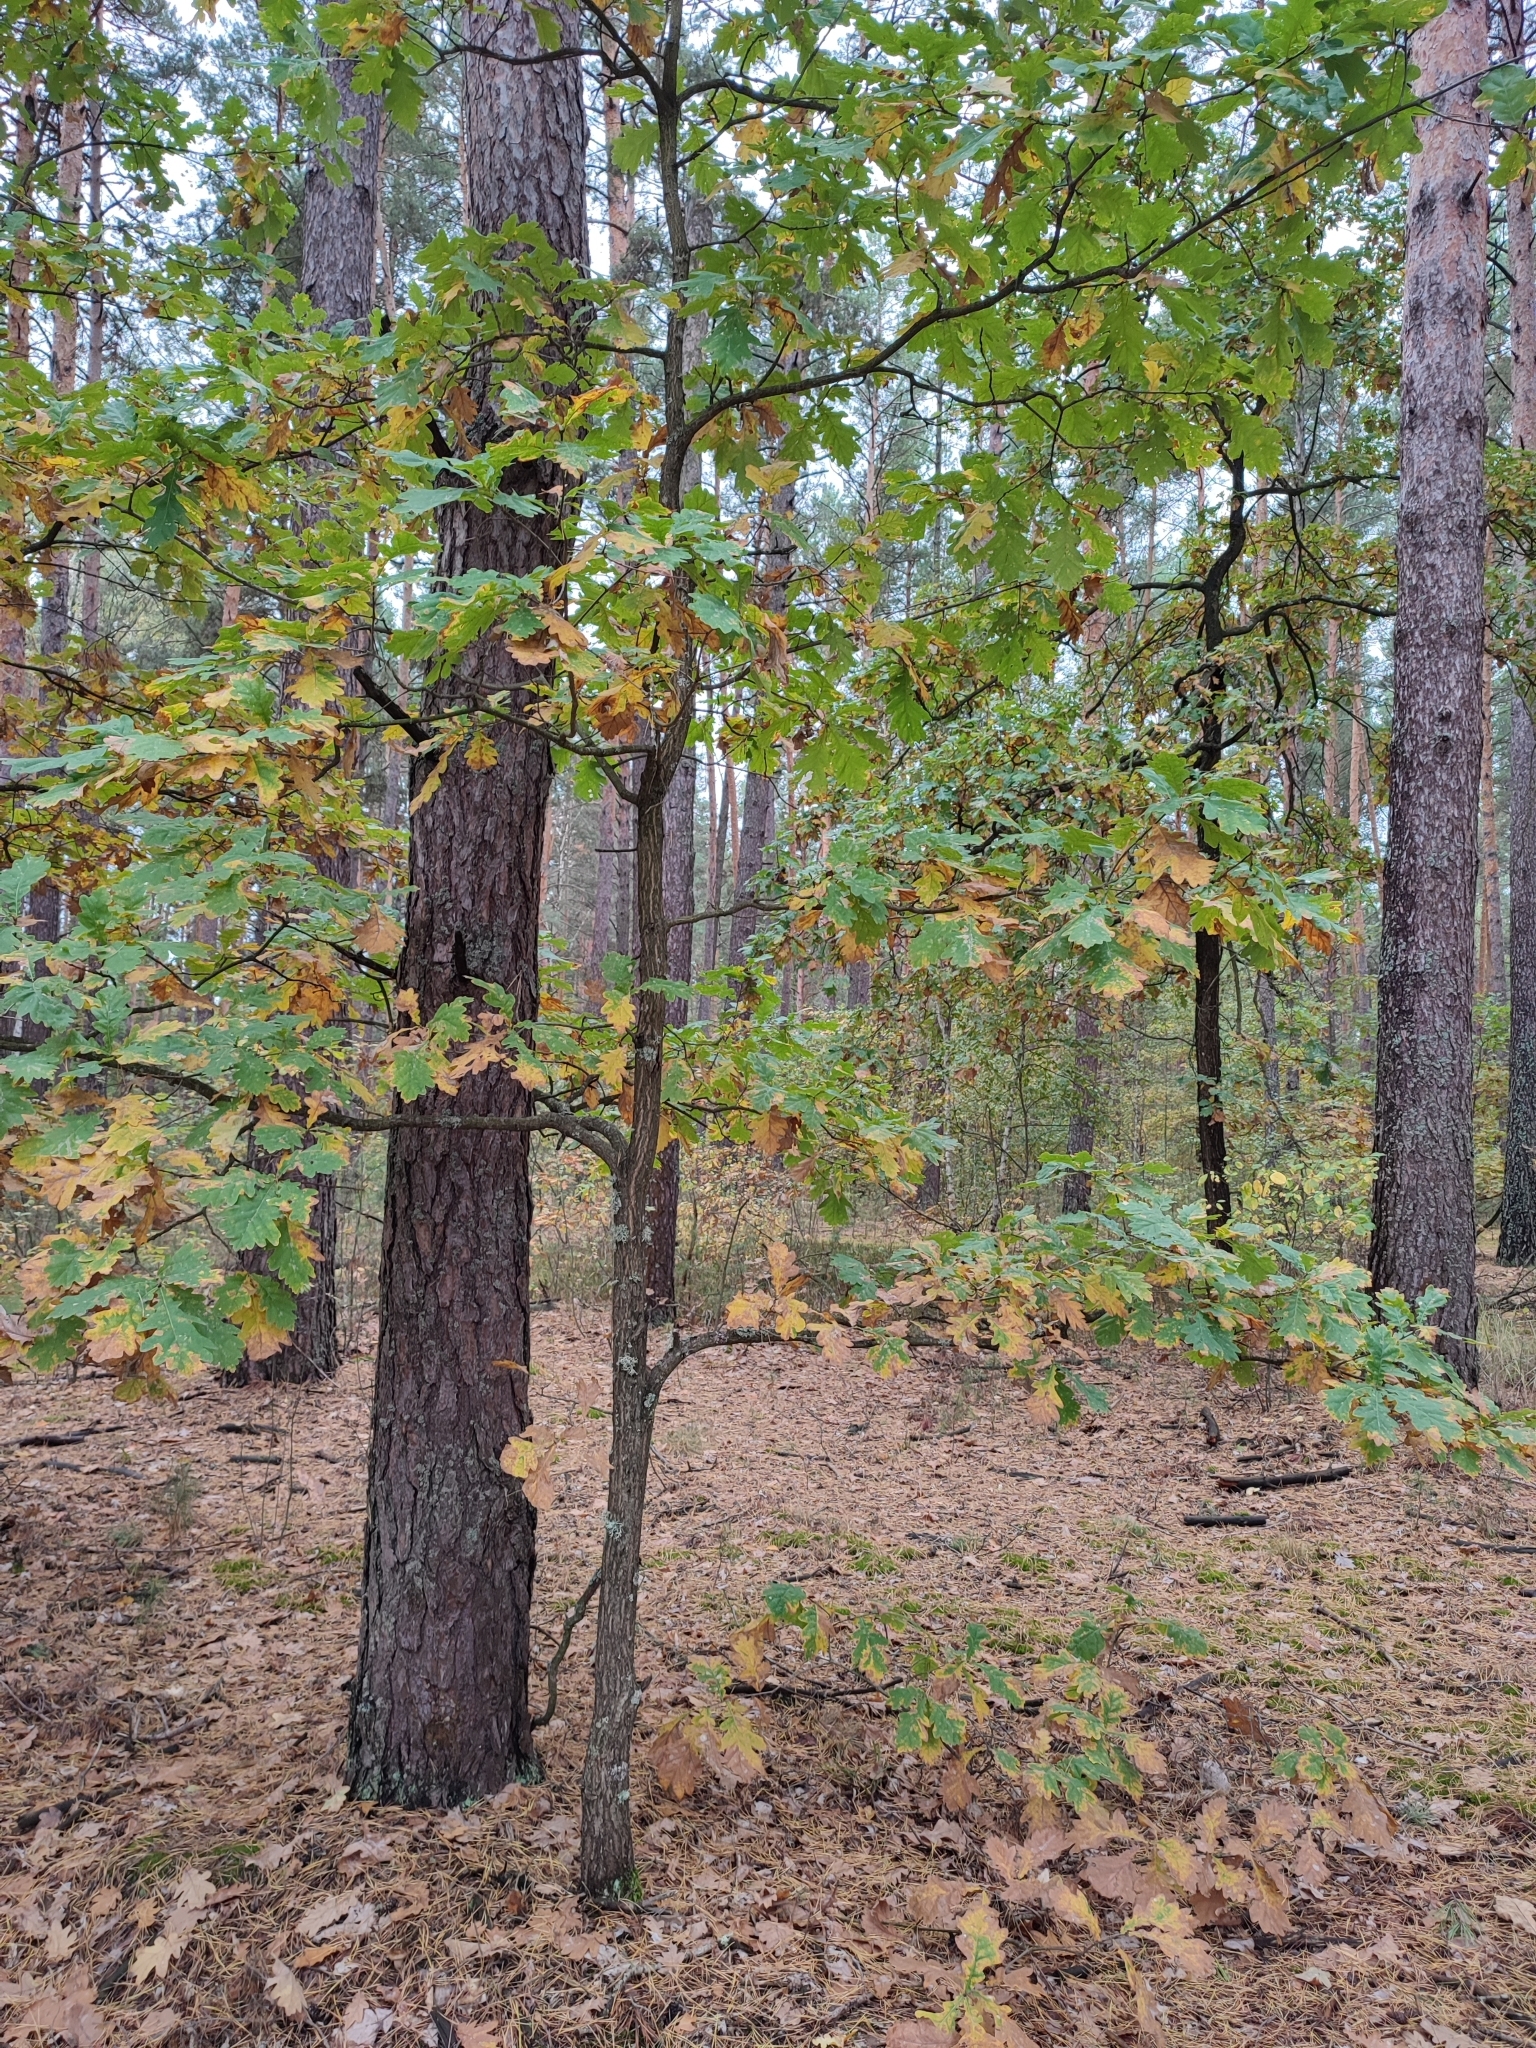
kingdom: Plantae
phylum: Tracheophyta
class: Magnoliopsida
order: Fagales
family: Fagaceae
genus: Quercus
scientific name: Quercus robur
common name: Pedunculate oak
